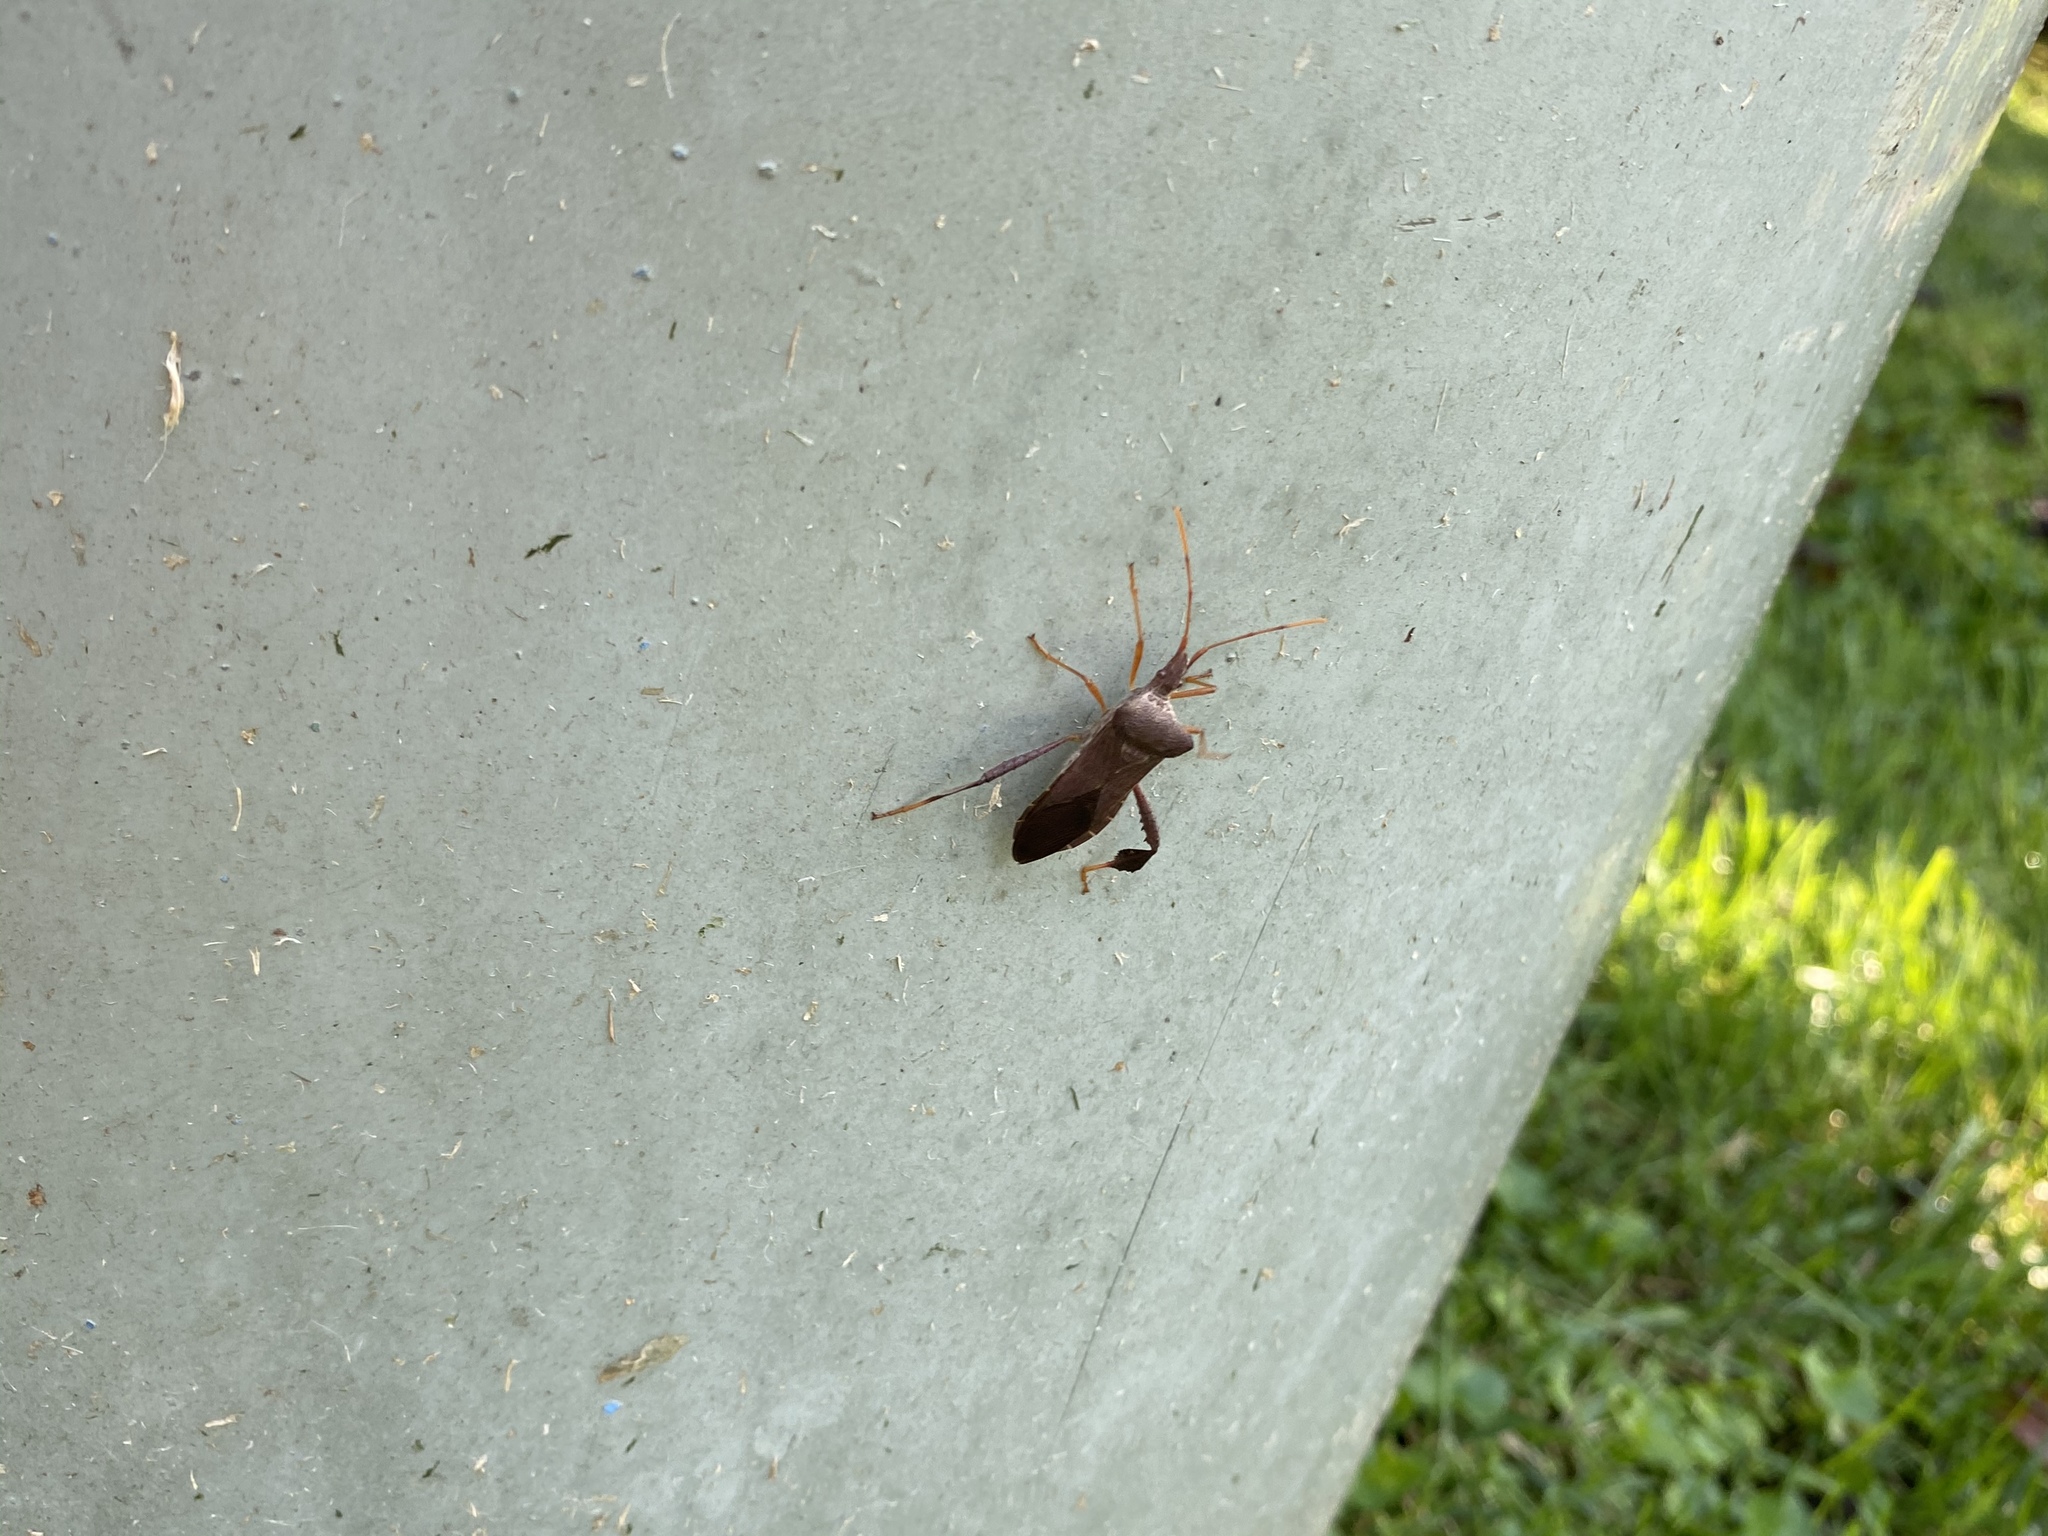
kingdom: Animalia
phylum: Arthropoda
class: Insecta
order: Hemiptera
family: Coreidae
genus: Leptoglossus
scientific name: Leptoglossus fulvicornis
